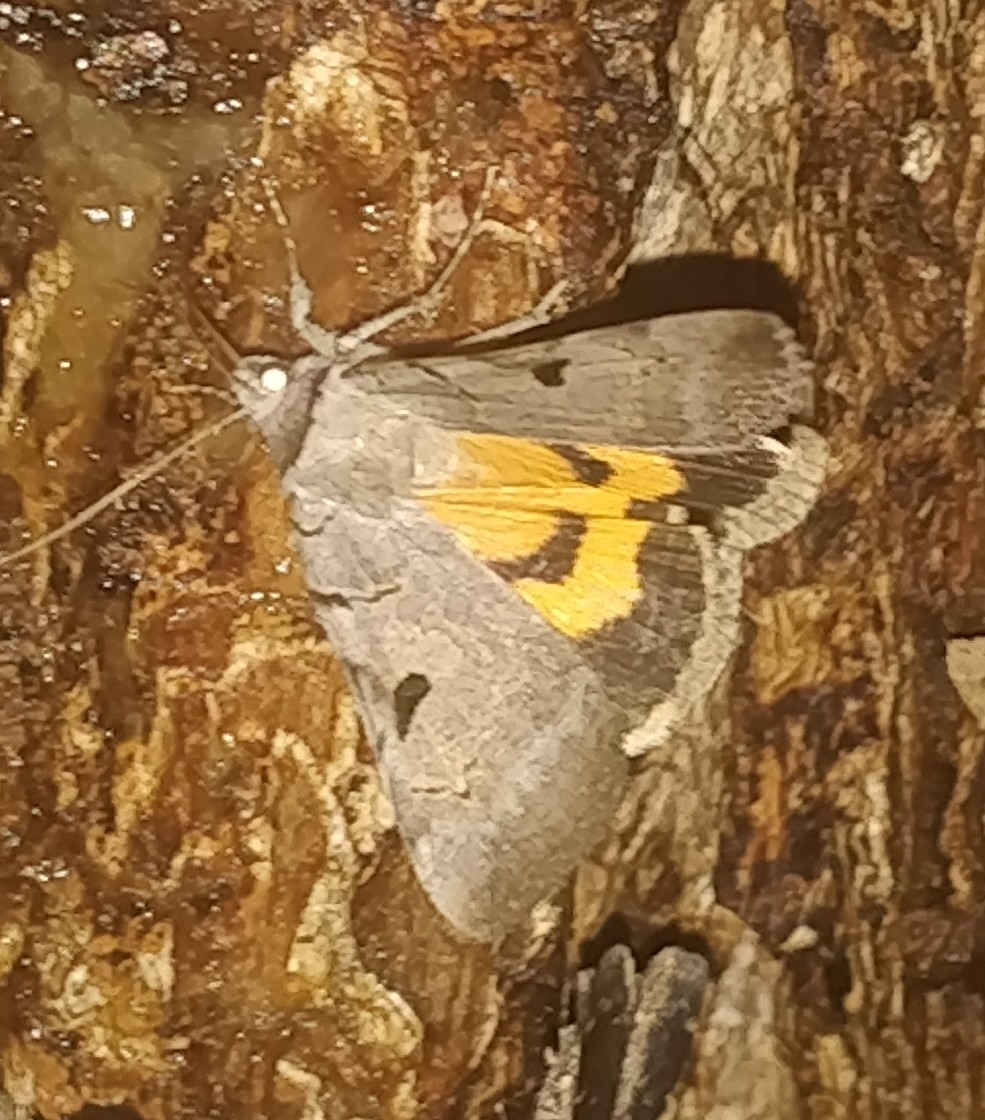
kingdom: Animalia
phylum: Arthropoda
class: Insecta
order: Lepidoptera
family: Erebidae
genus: Catocala
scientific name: Catocala nuptialis
